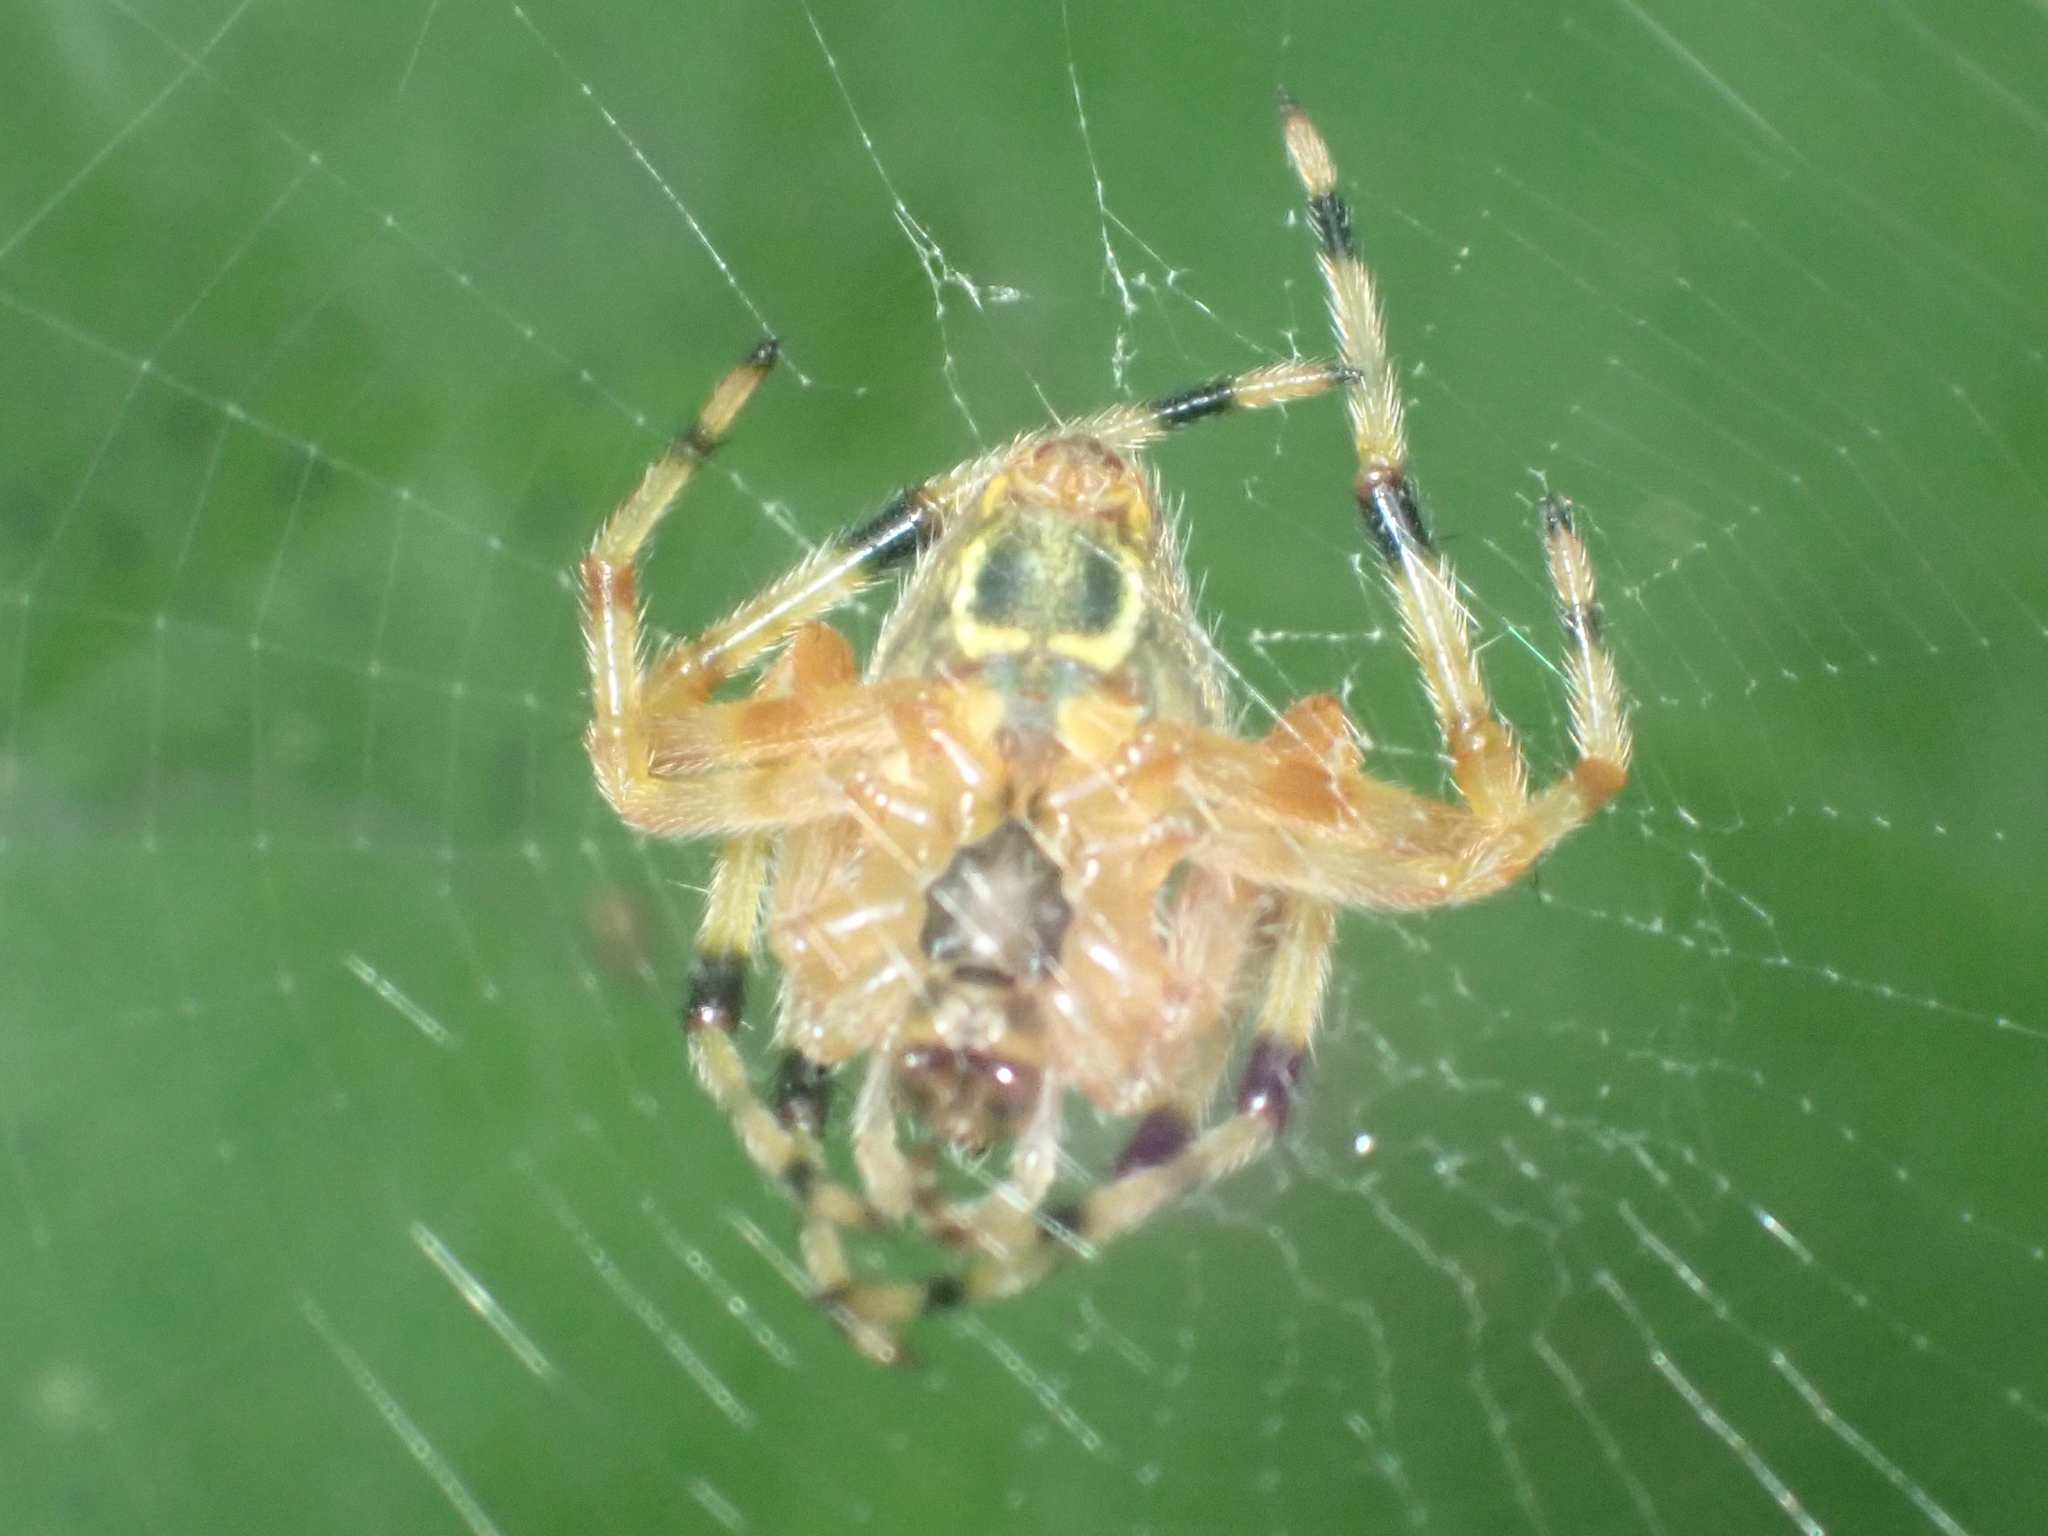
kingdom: Animalia
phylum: Arthropoda
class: Arachnida
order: Araneae
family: Araneidae
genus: Eriophora
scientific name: Eriophora nephiloides
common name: Orb weavers
